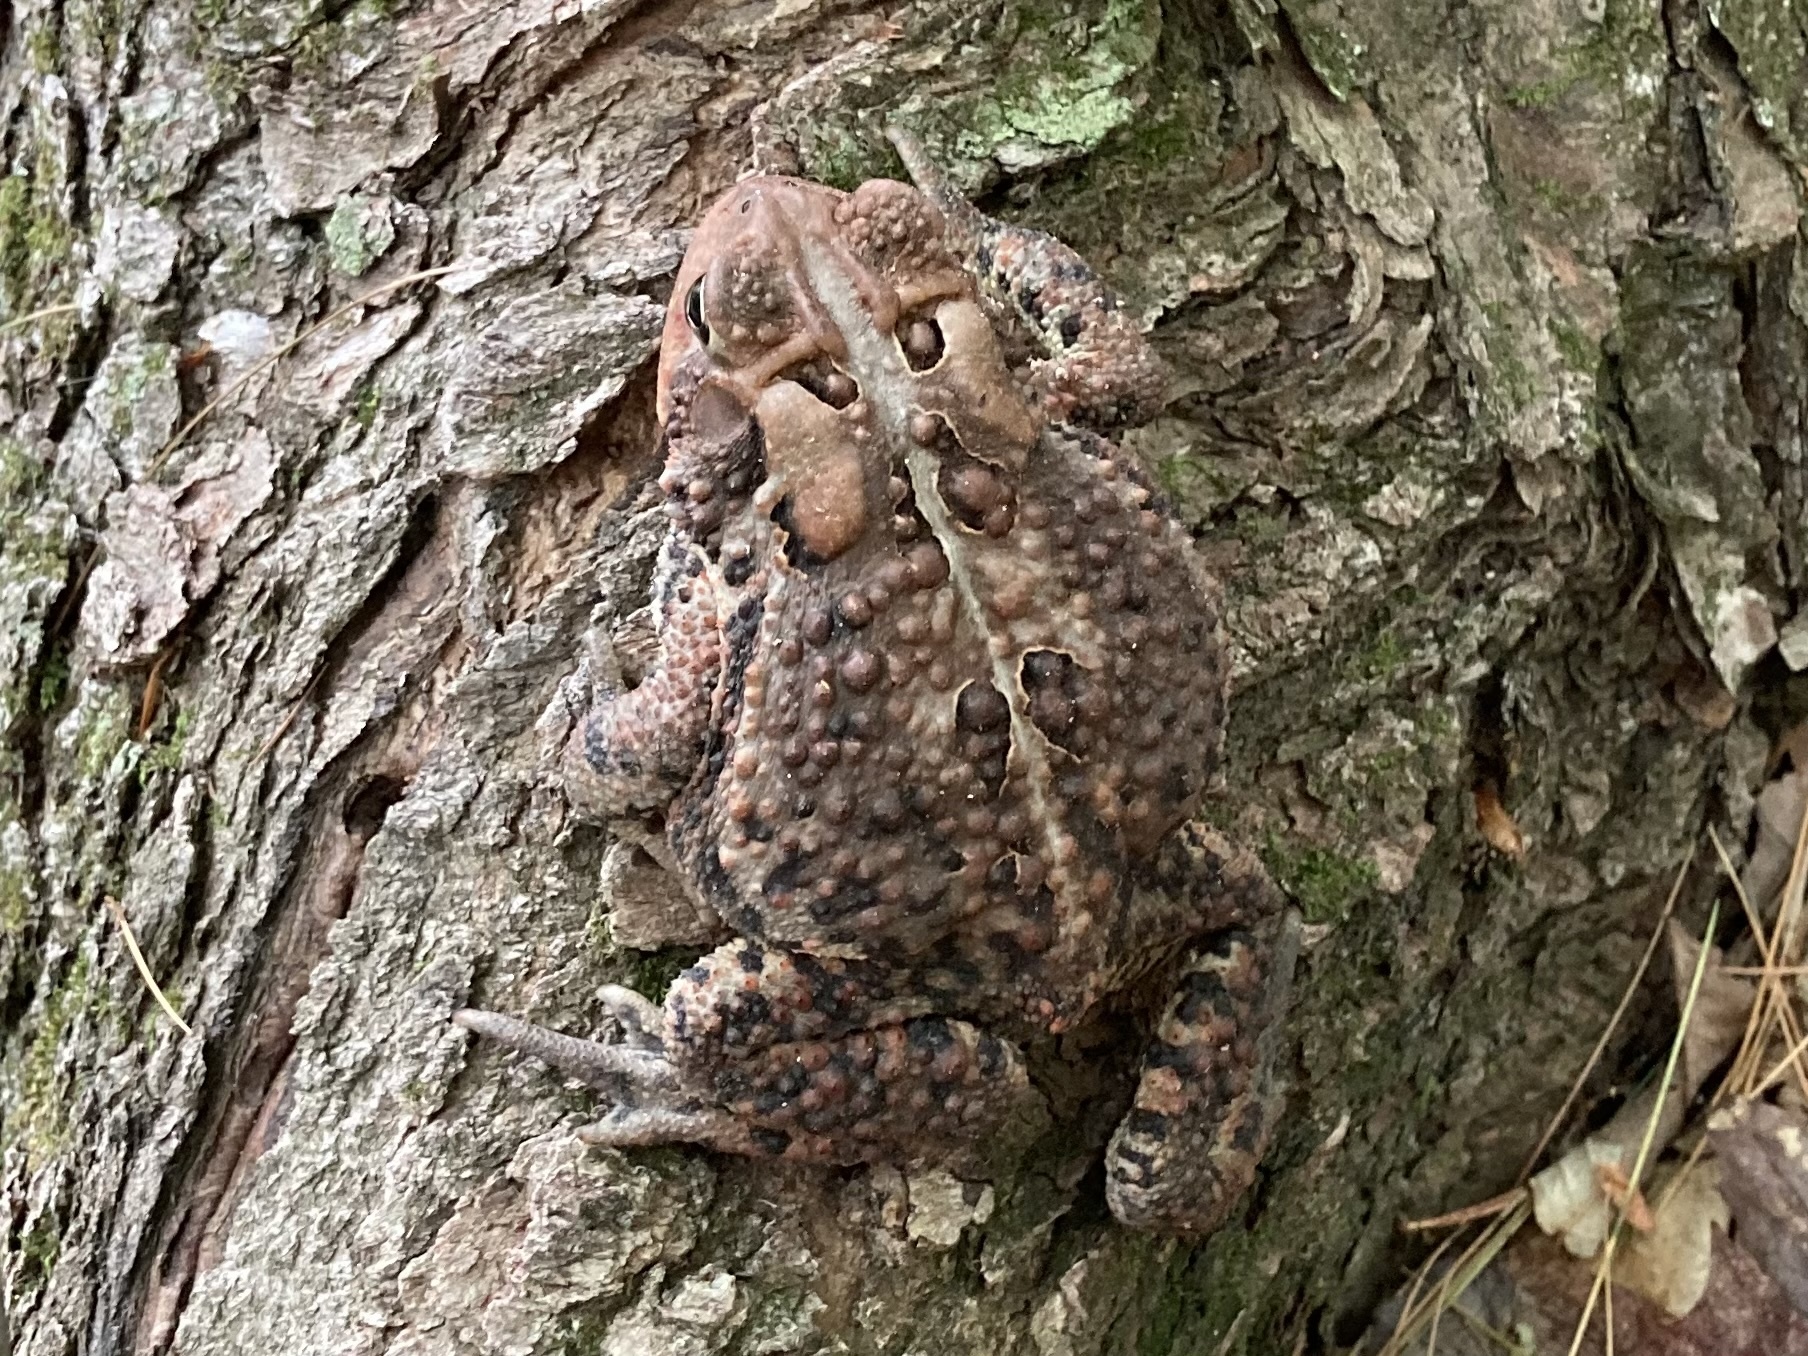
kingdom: Animalia
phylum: Chordata
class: Amphibia
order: Anura
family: Bufonidae
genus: Anaxyrus
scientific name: Anaxyrus americanus
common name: American toad
